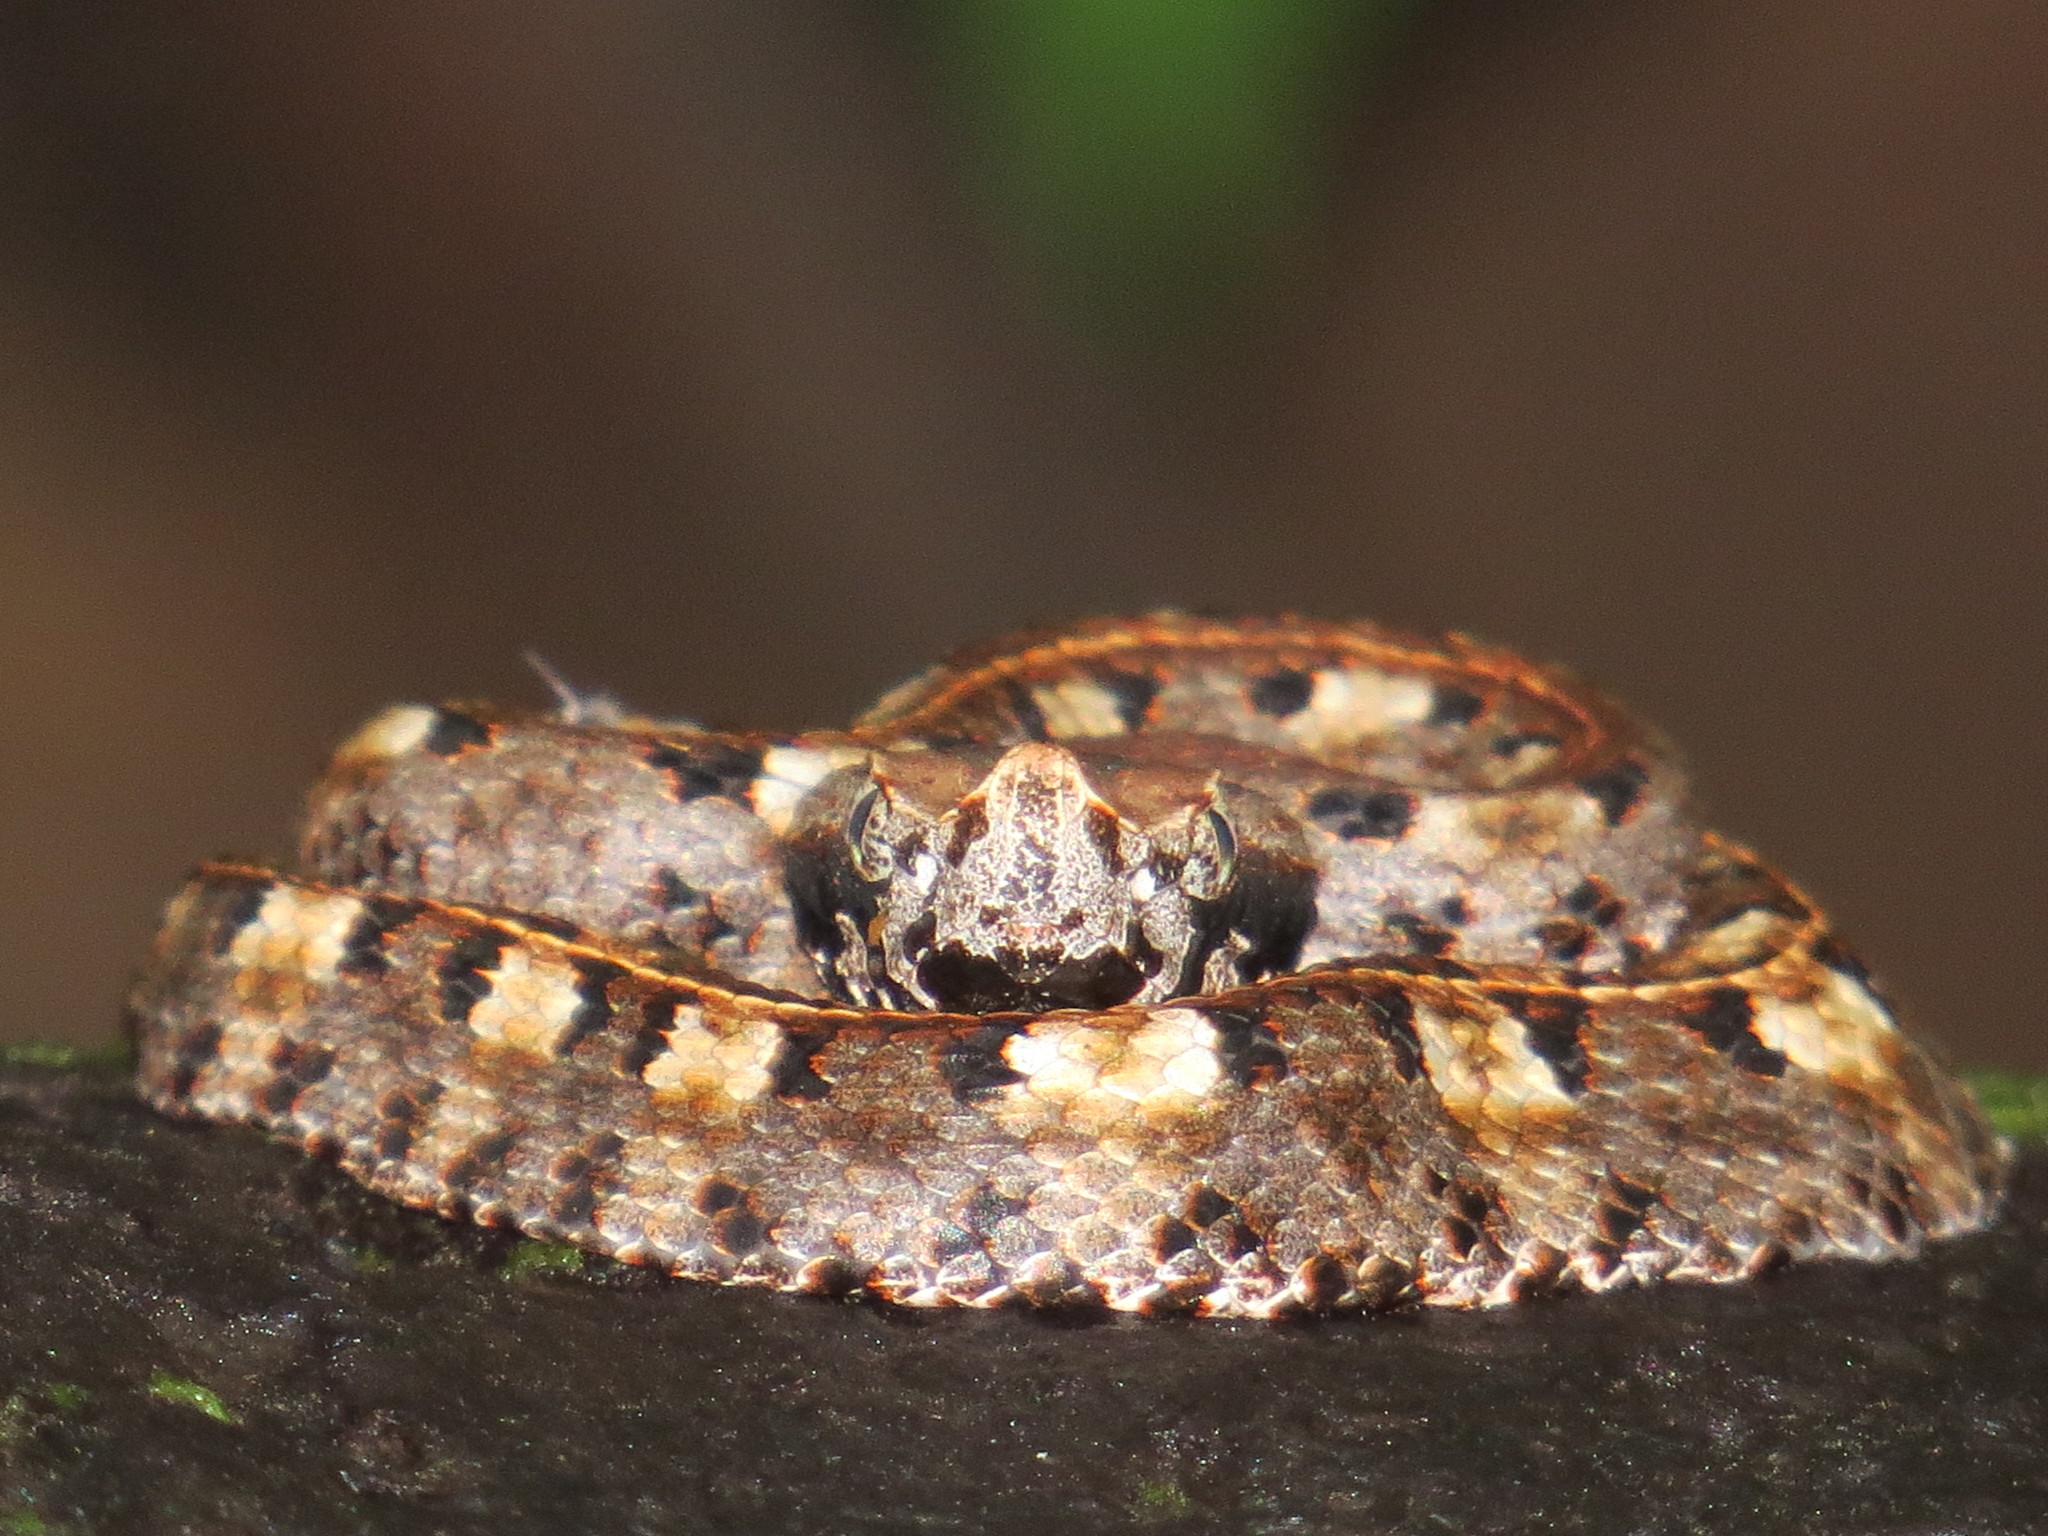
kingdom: Animalia
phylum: Chordata
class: Squamata
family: Viperidae
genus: Porthidium
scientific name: Porthidium nasutum
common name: Hognosed pit viper
